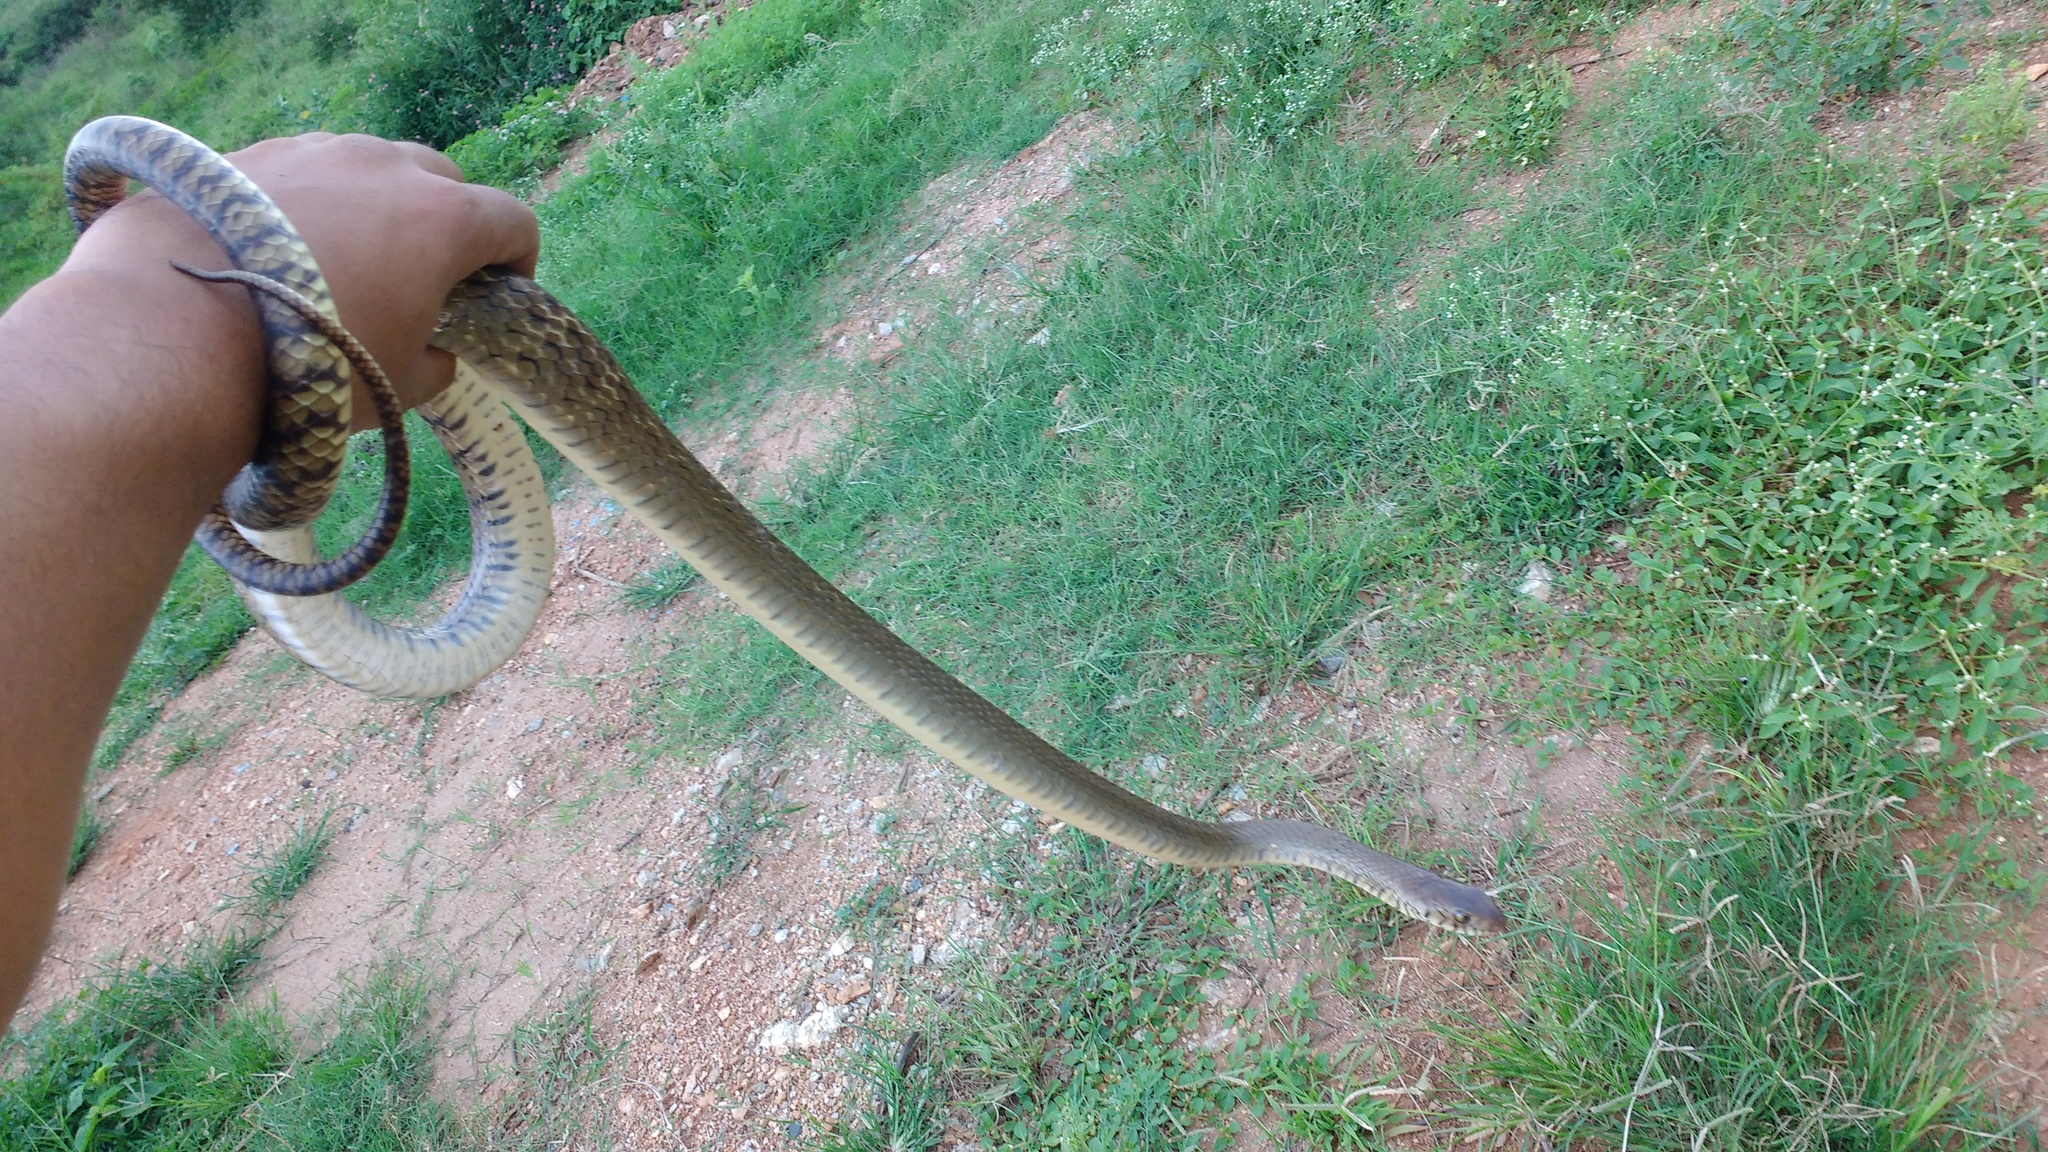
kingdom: Animalia
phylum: Chordata
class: Squamata
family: Colubridae
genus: Ptyas
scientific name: Ptyas mucosa
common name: Oriental ratsnake
